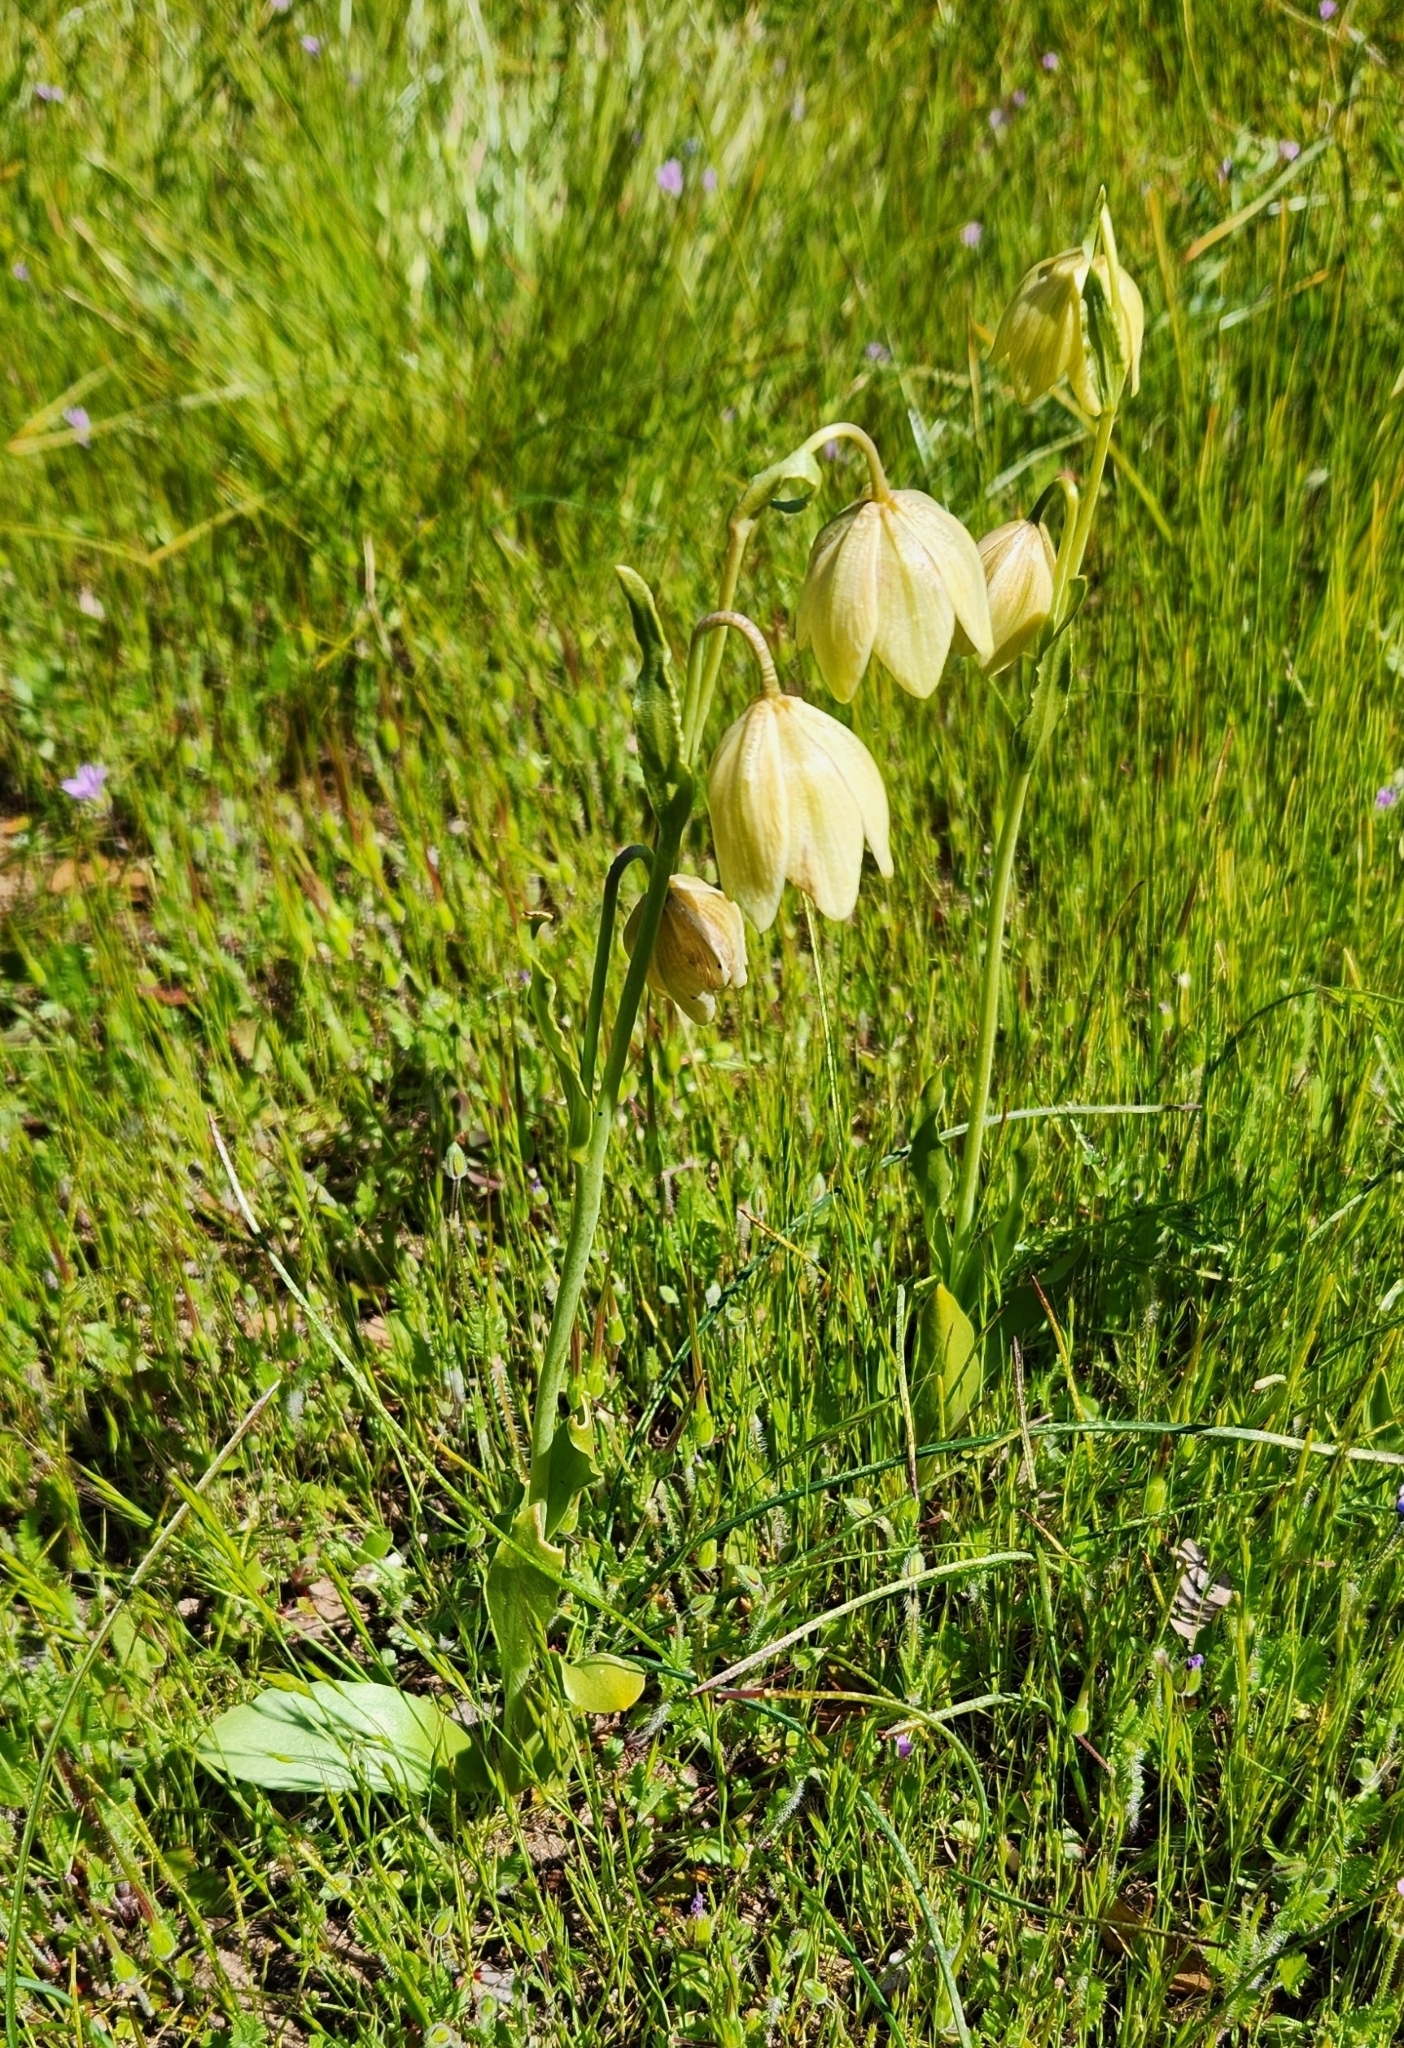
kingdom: Plantae
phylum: Tracheophyta
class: Liliopsida
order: Liliales
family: Liliaceae
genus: Fritillaria
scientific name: Fritillaria liliacea
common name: Fragrant fritillary
